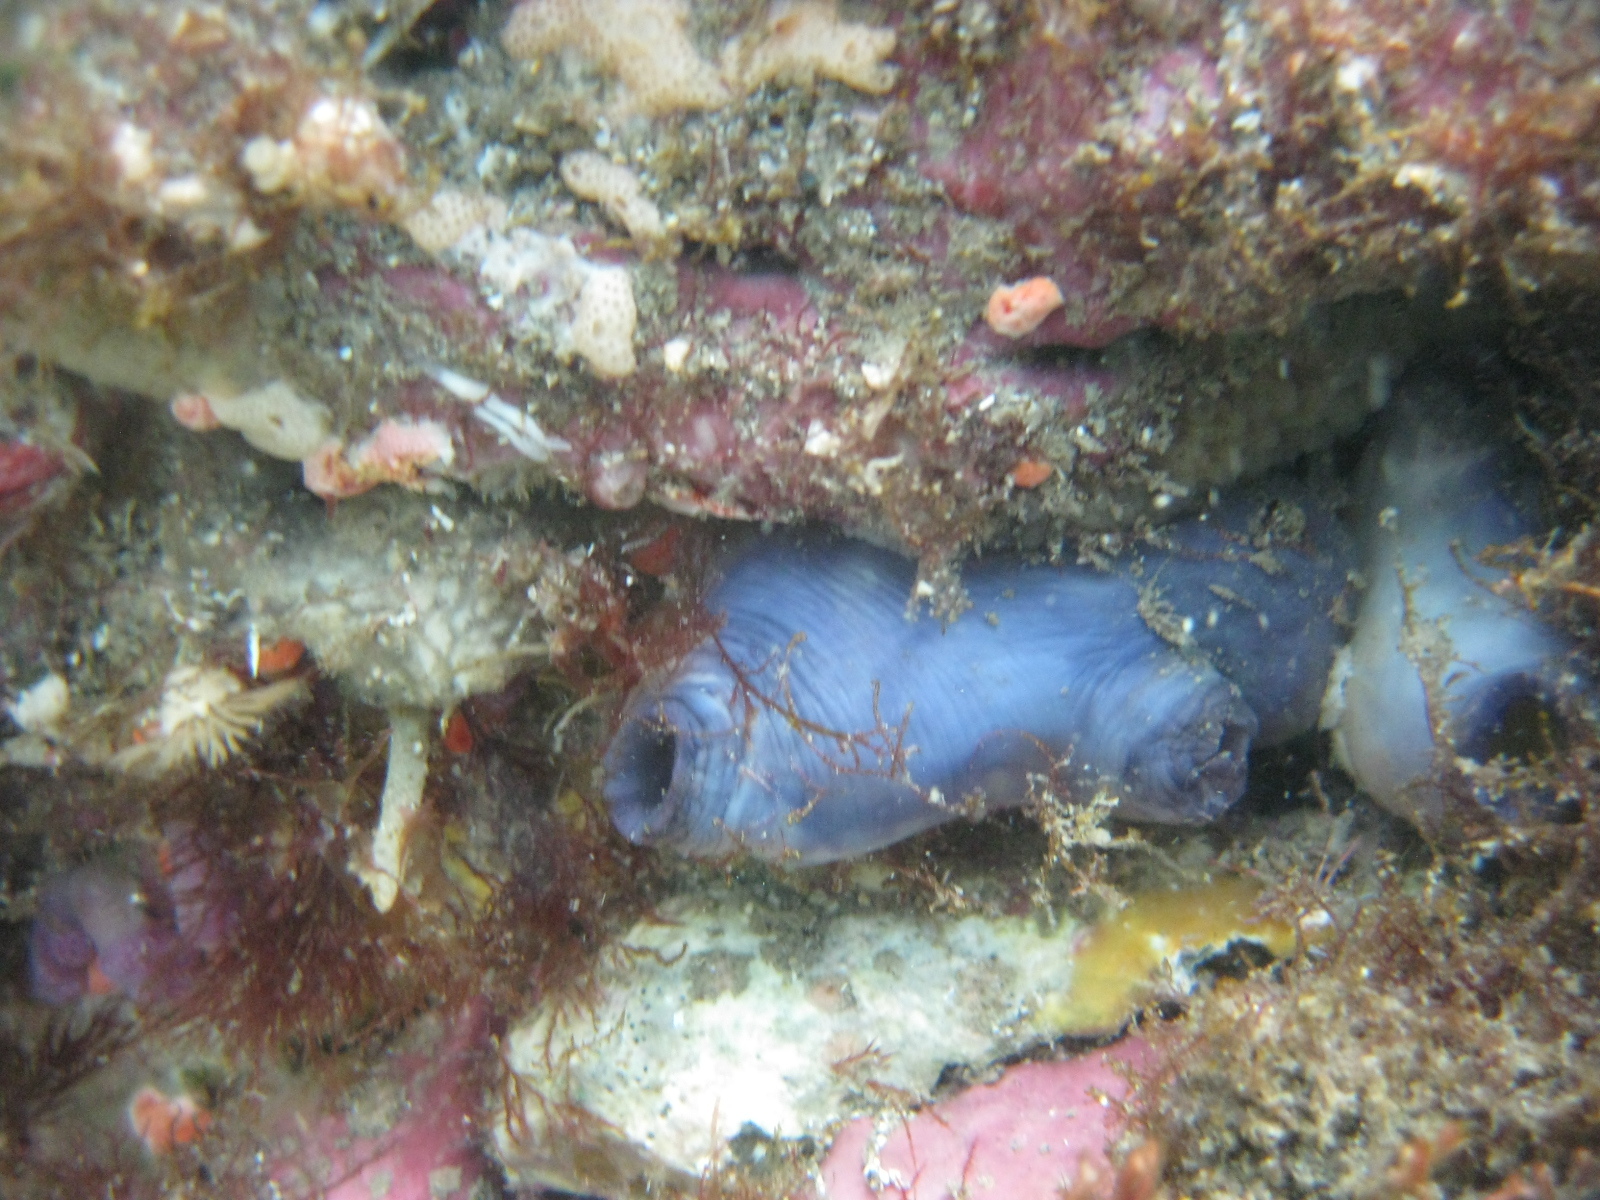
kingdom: Animalia
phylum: Chordata
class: Ascidiacea
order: Stolidobranchia
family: Styelidae
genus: Asterocarpa
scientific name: Asterocarpa coerulea
